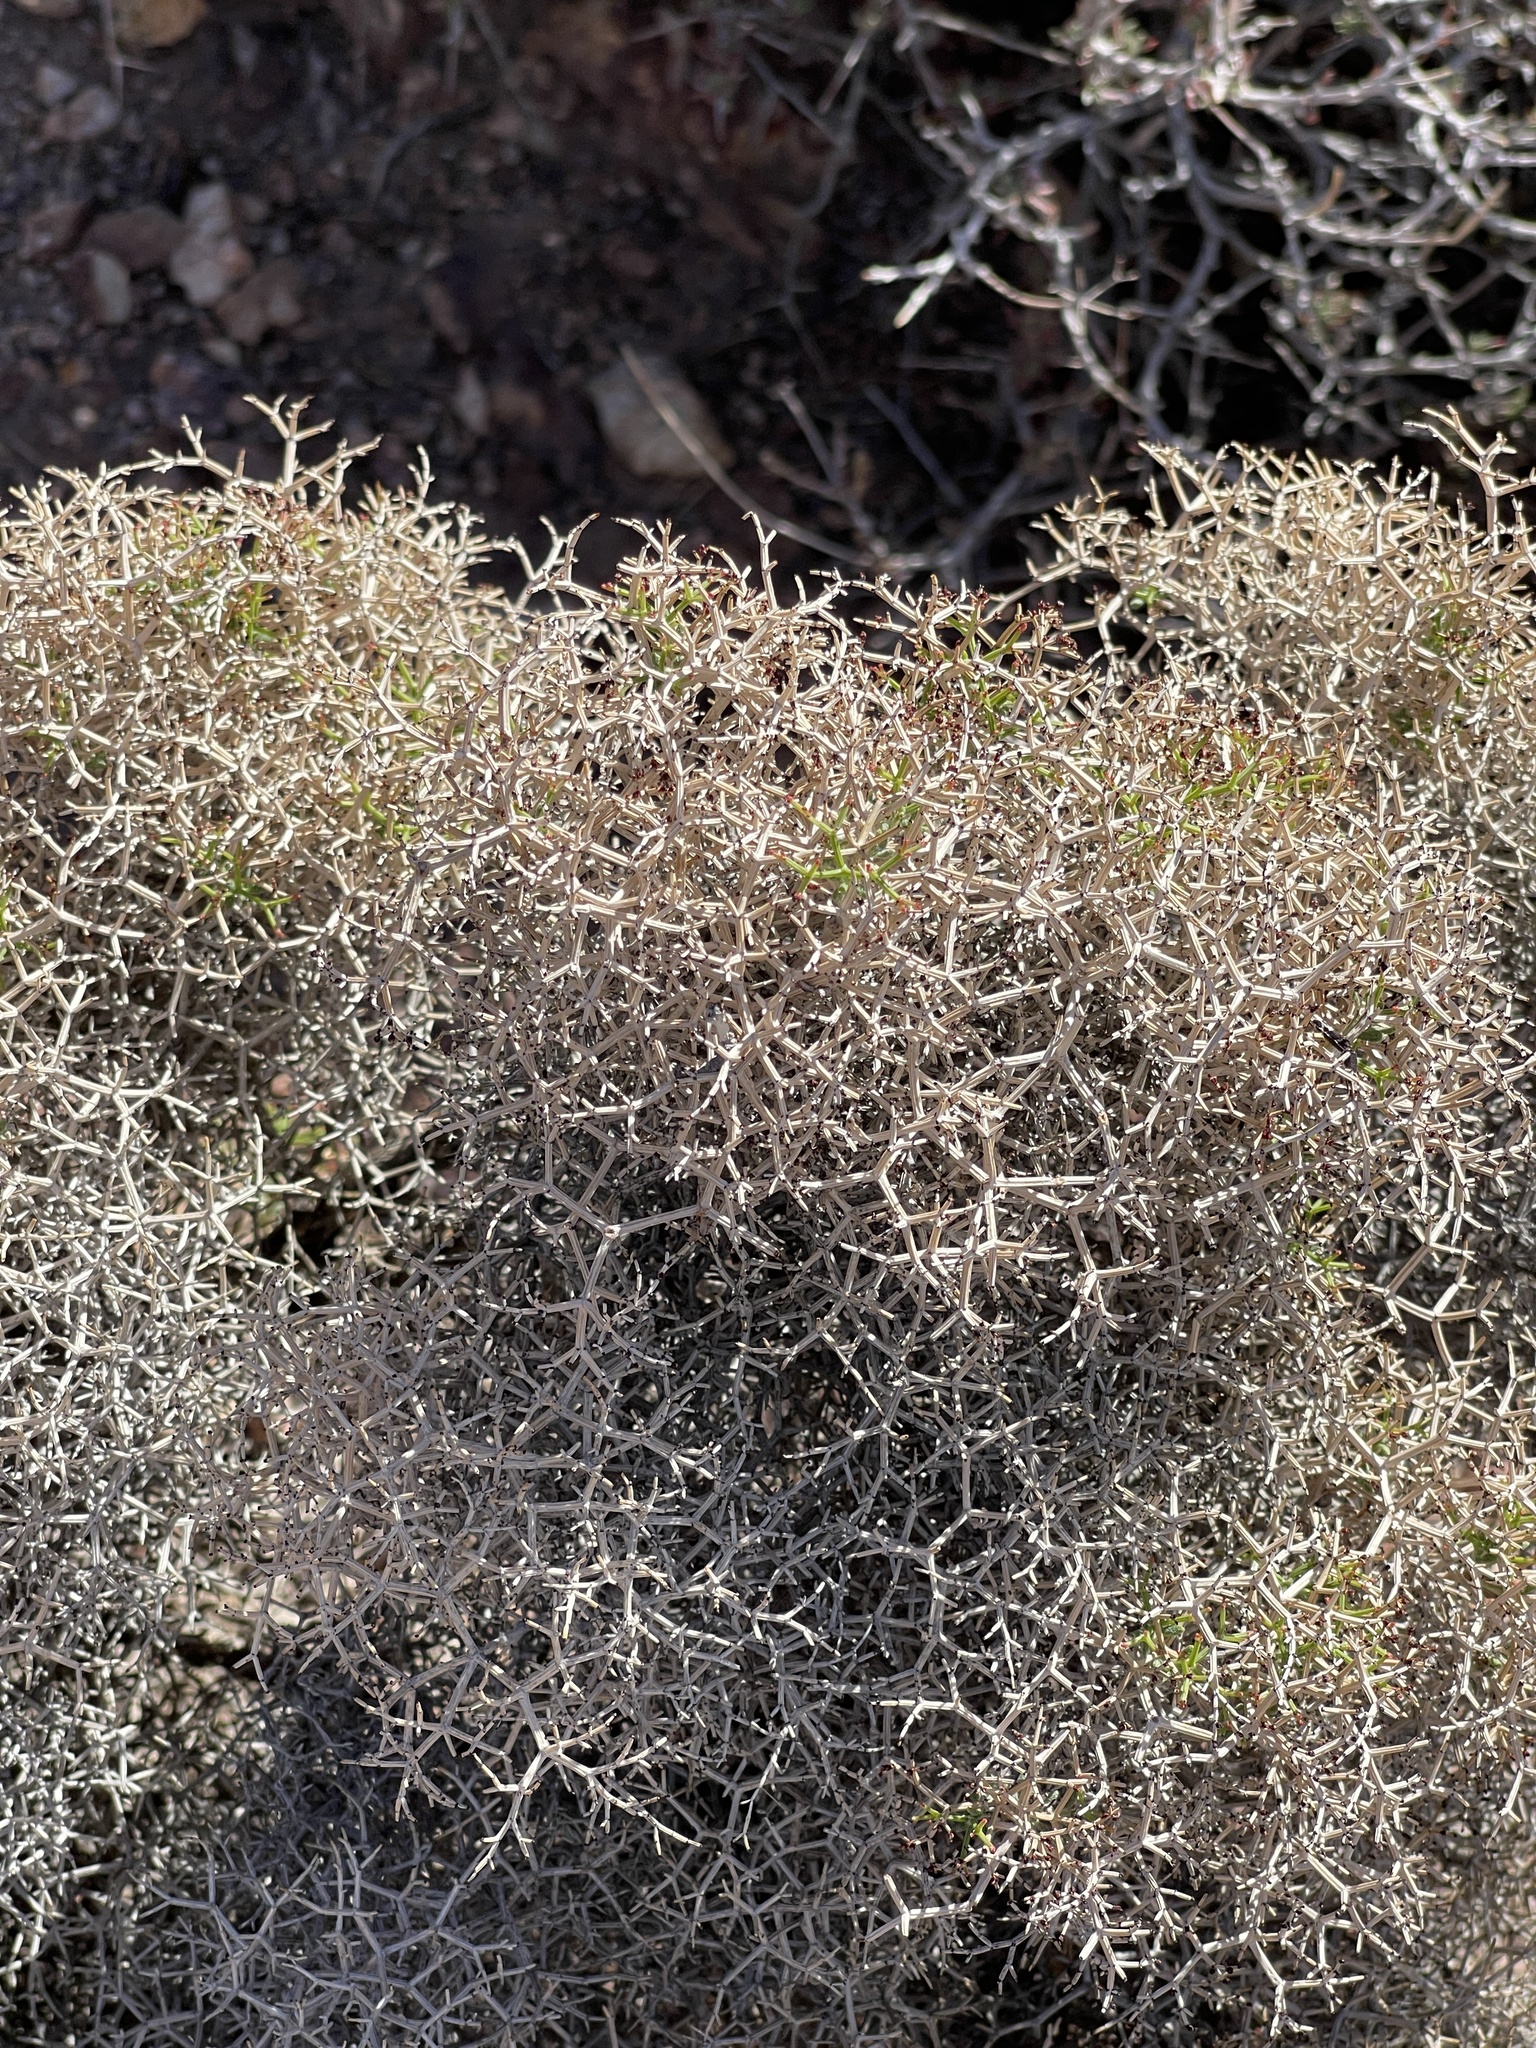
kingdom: Plantae
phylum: Tracheophyta
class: Magnoliopsida
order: Caryophyllales
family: Polygonaceae
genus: Eriogonum
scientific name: Eriogonum heermannii
